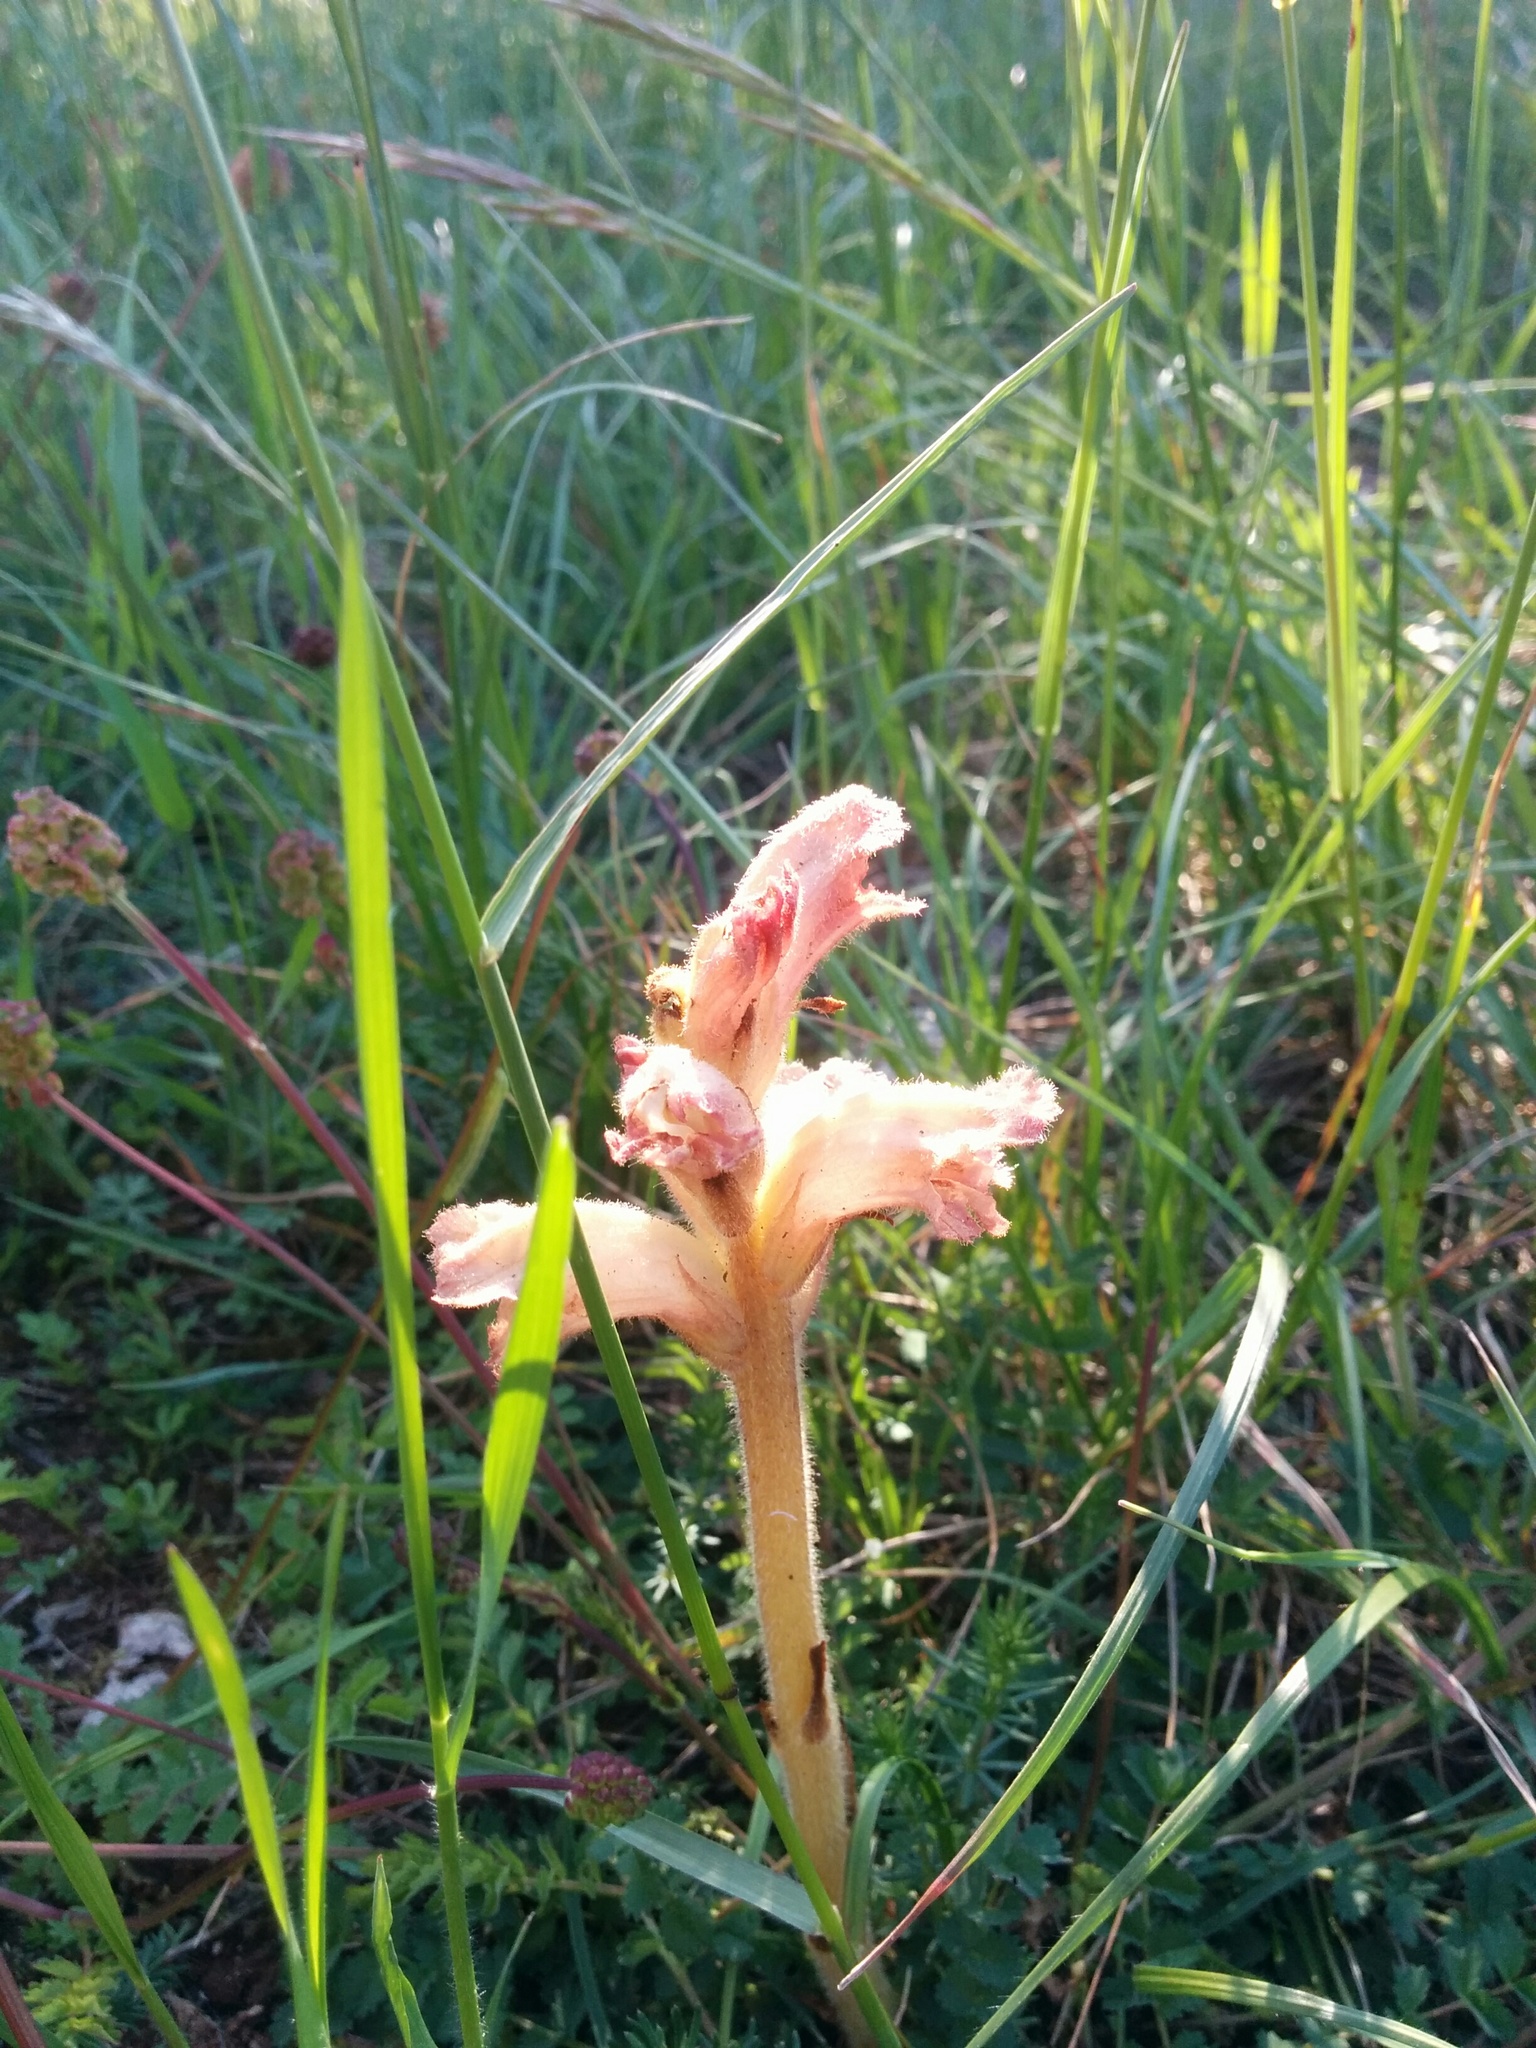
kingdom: Plantae
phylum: Tracheophyta
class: Magnoliopsida
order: Lamiales
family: Orobanchaceae
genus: Orobanche
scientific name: Orobanche caryophyllacea
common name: Bedstraw broomrape
